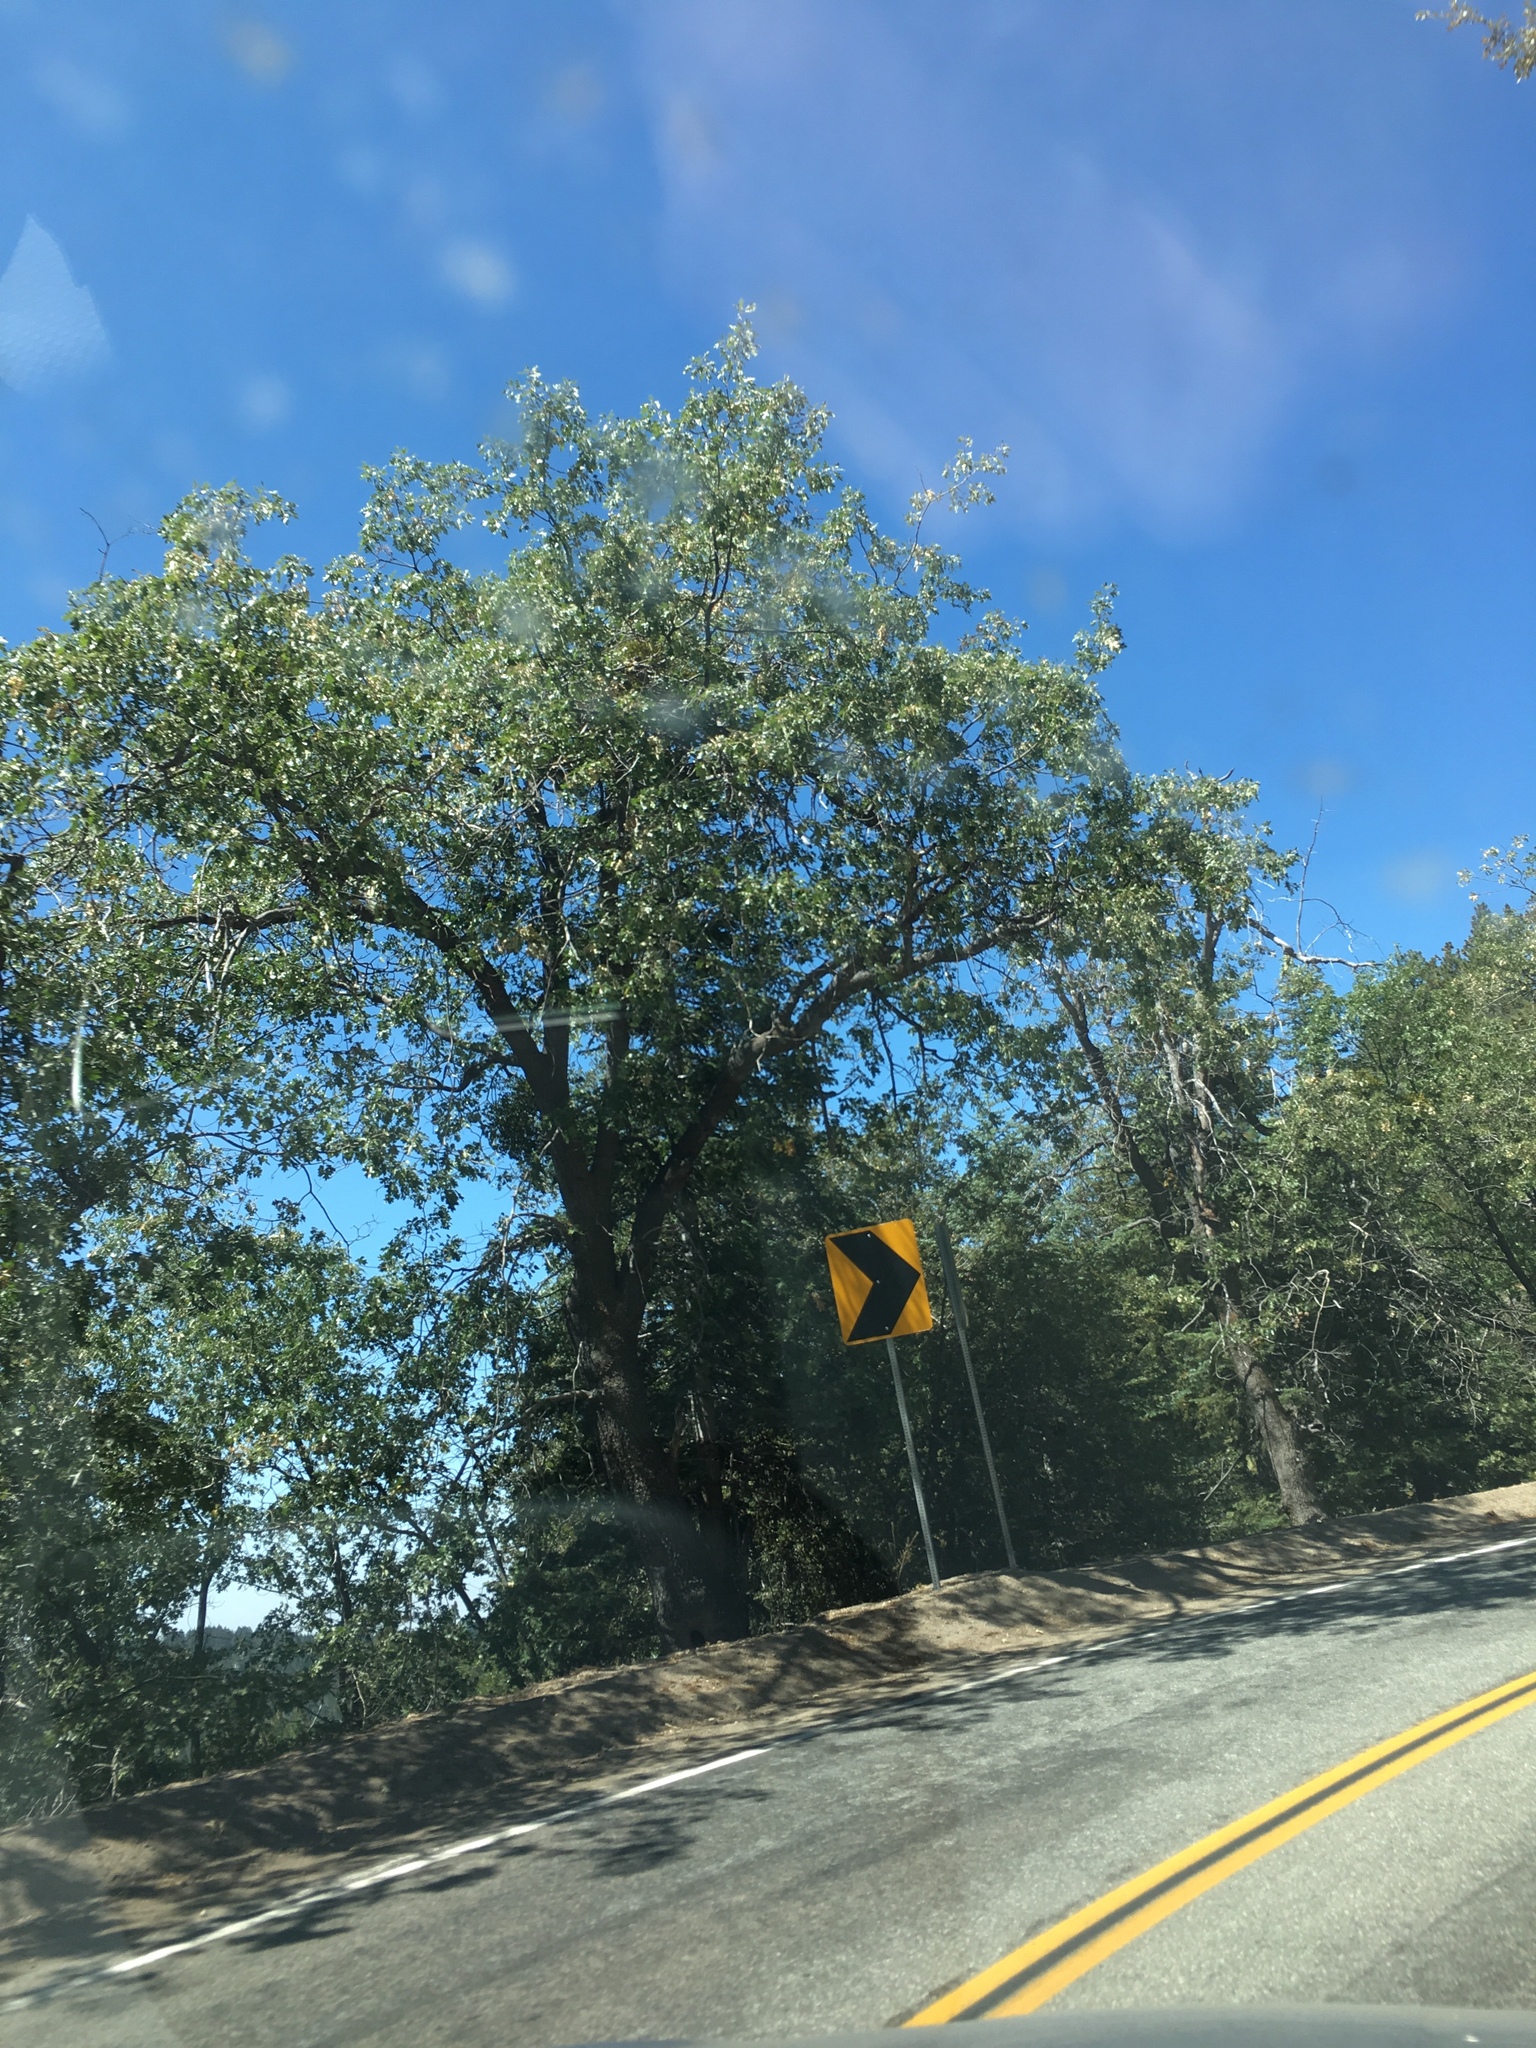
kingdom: Plantae
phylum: Tracheophyta
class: Magnoliopsida
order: Fagales
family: Fagaceae
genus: Quercus
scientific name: Quercus kelloggii
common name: California black oak
